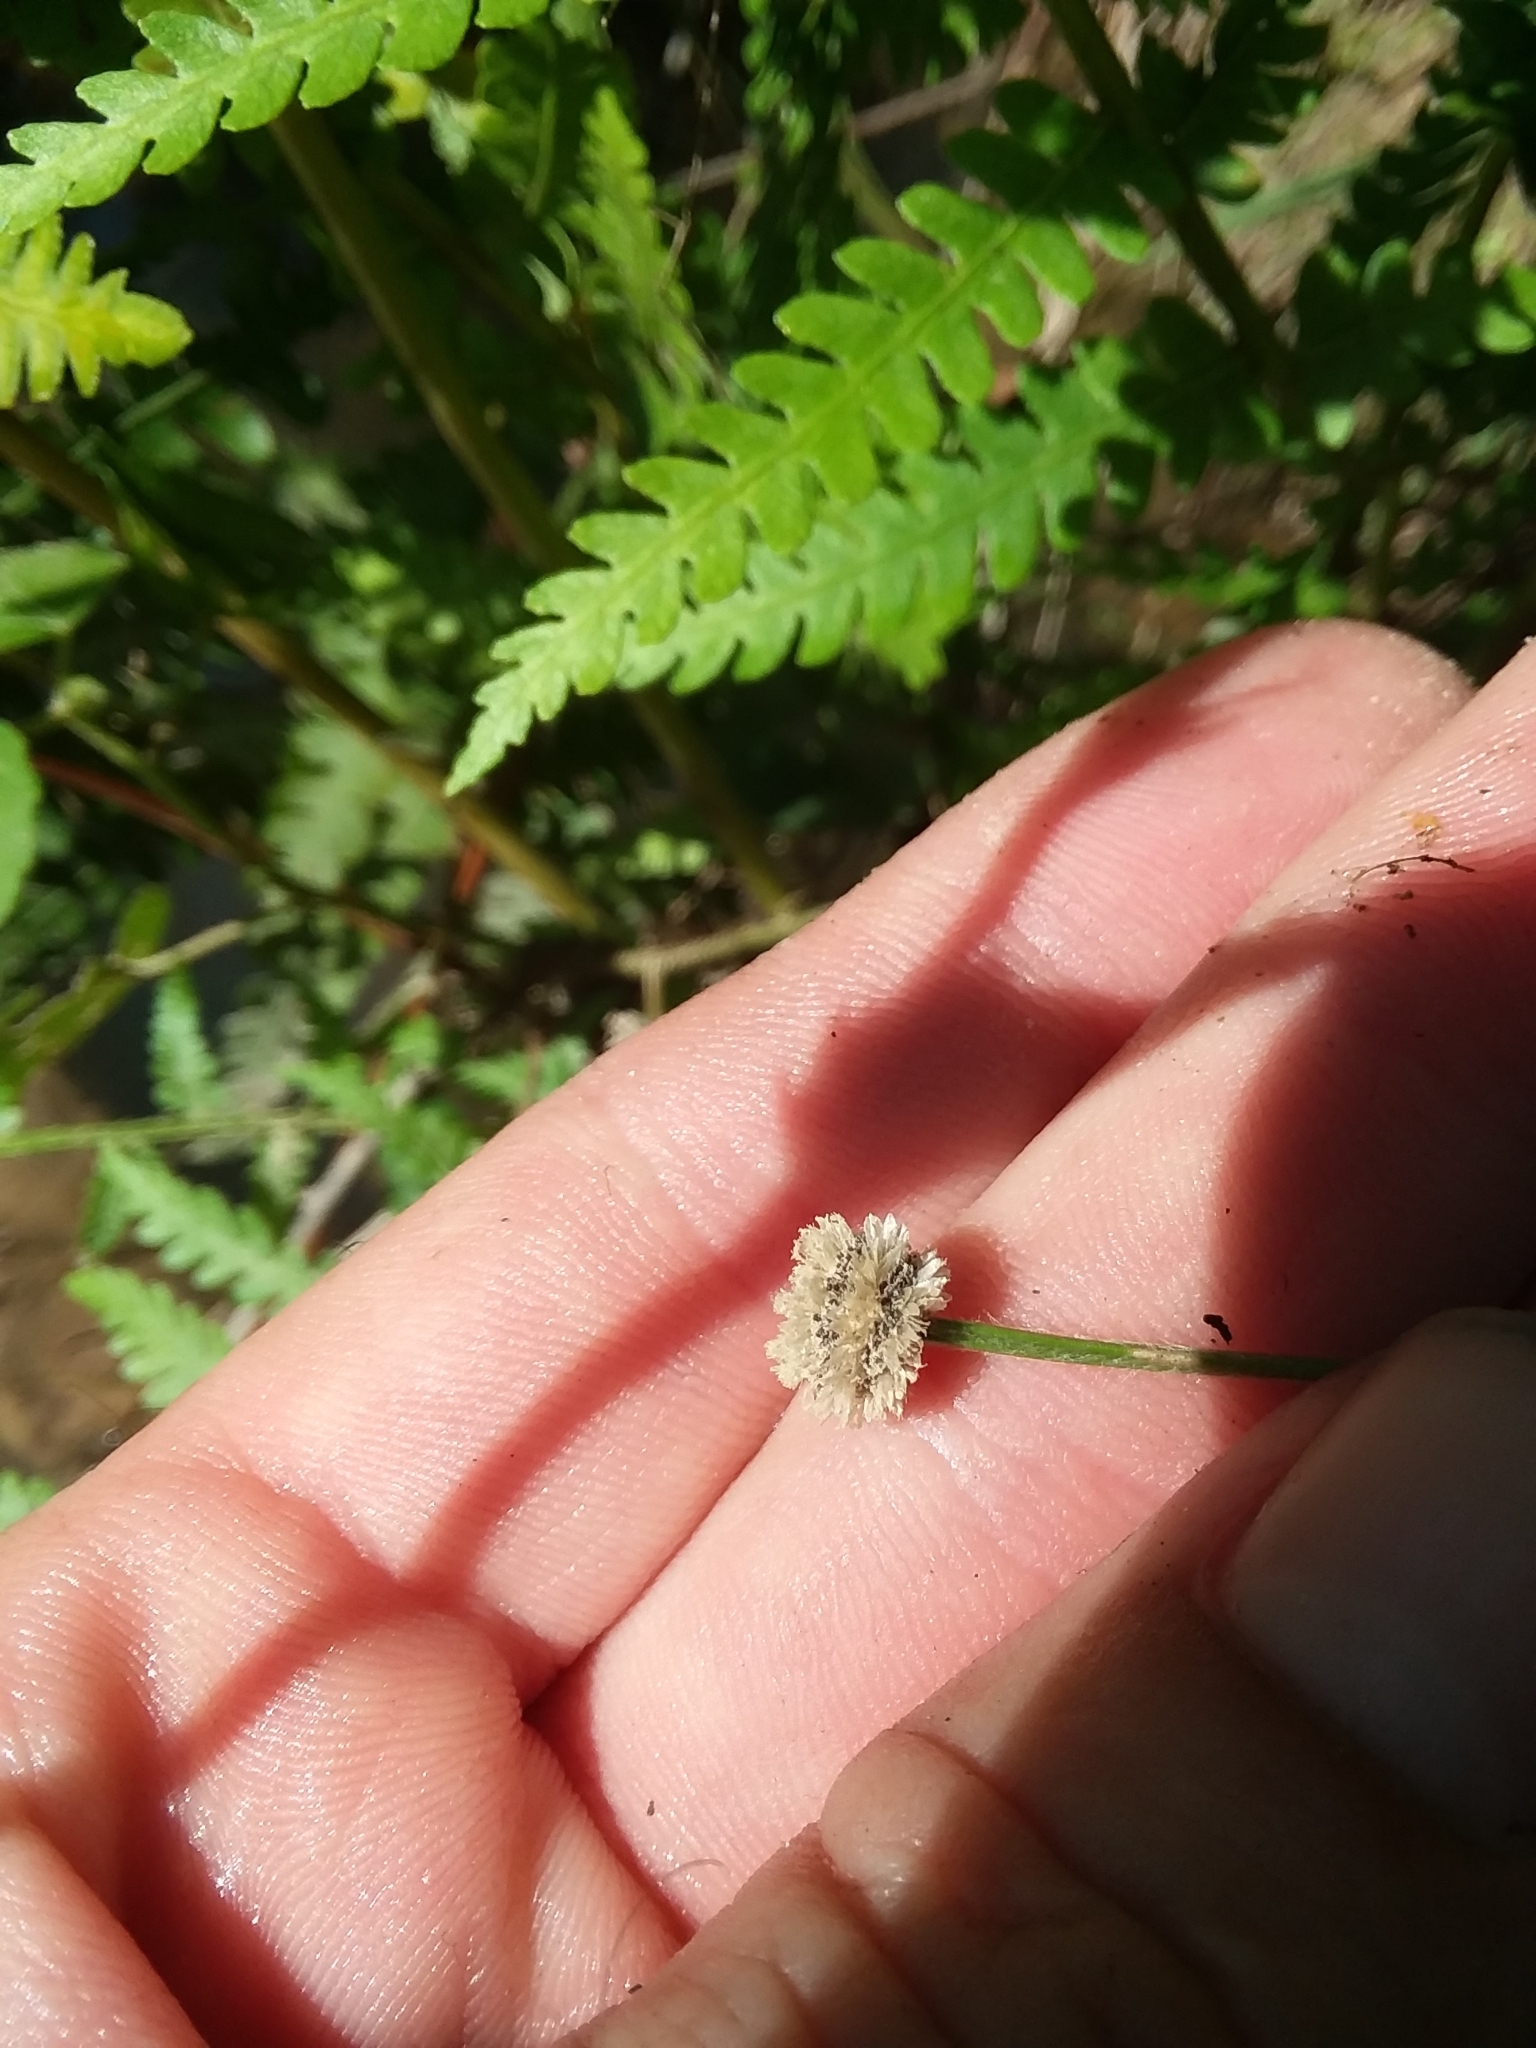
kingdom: Plantae
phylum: Tracheophyta
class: Liliopsida
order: Poales
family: Eriocaulaceae
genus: Paepalanthus
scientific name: Paepalanthus anceps
